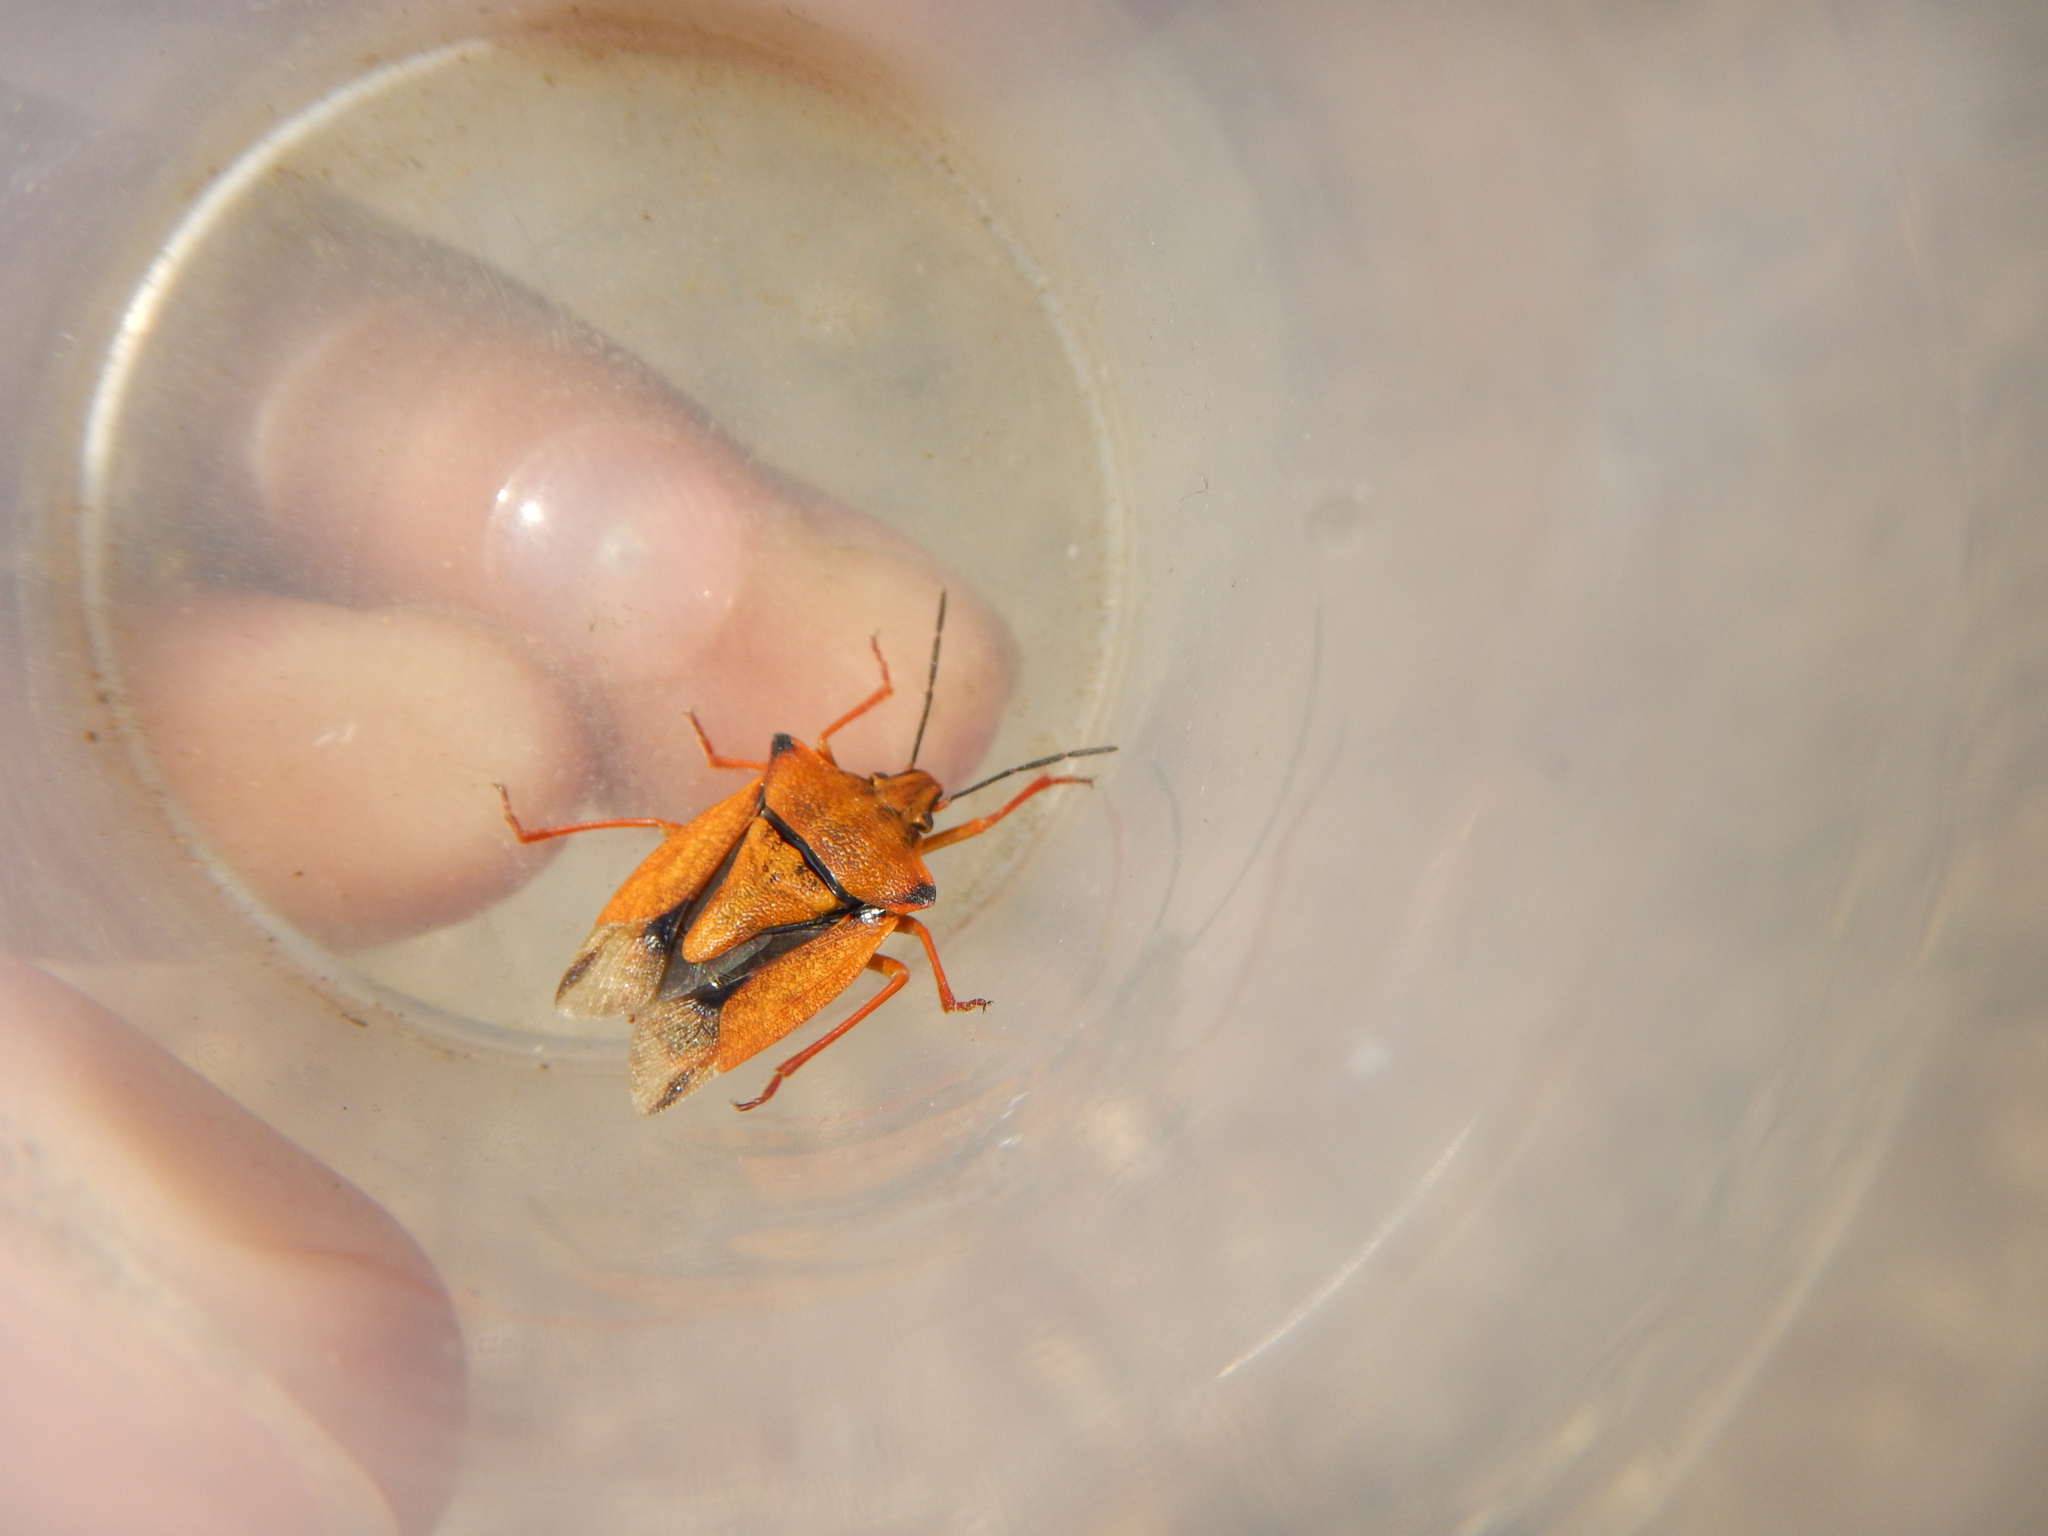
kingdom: Animalia
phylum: Arthropoda
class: Insecta
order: Hemiptera
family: Pentatomidae
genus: Carpocoris
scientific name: Carpocoris mediterraneus
